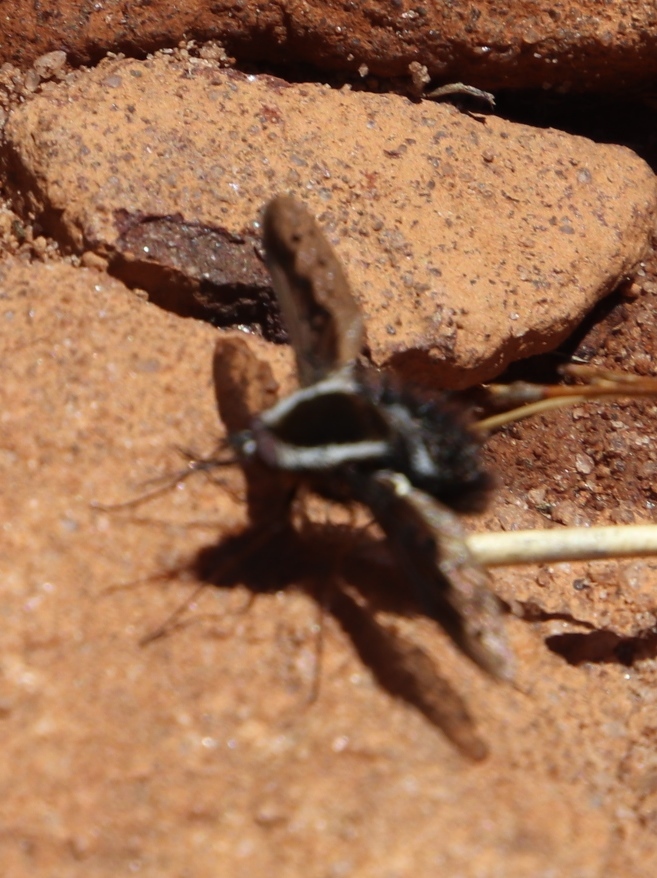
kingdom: Animalia
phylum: Arthropoda
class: Insecta
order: Diptera
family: Bombyliidae
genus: Triplasius
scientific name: Triplasius lateralis
